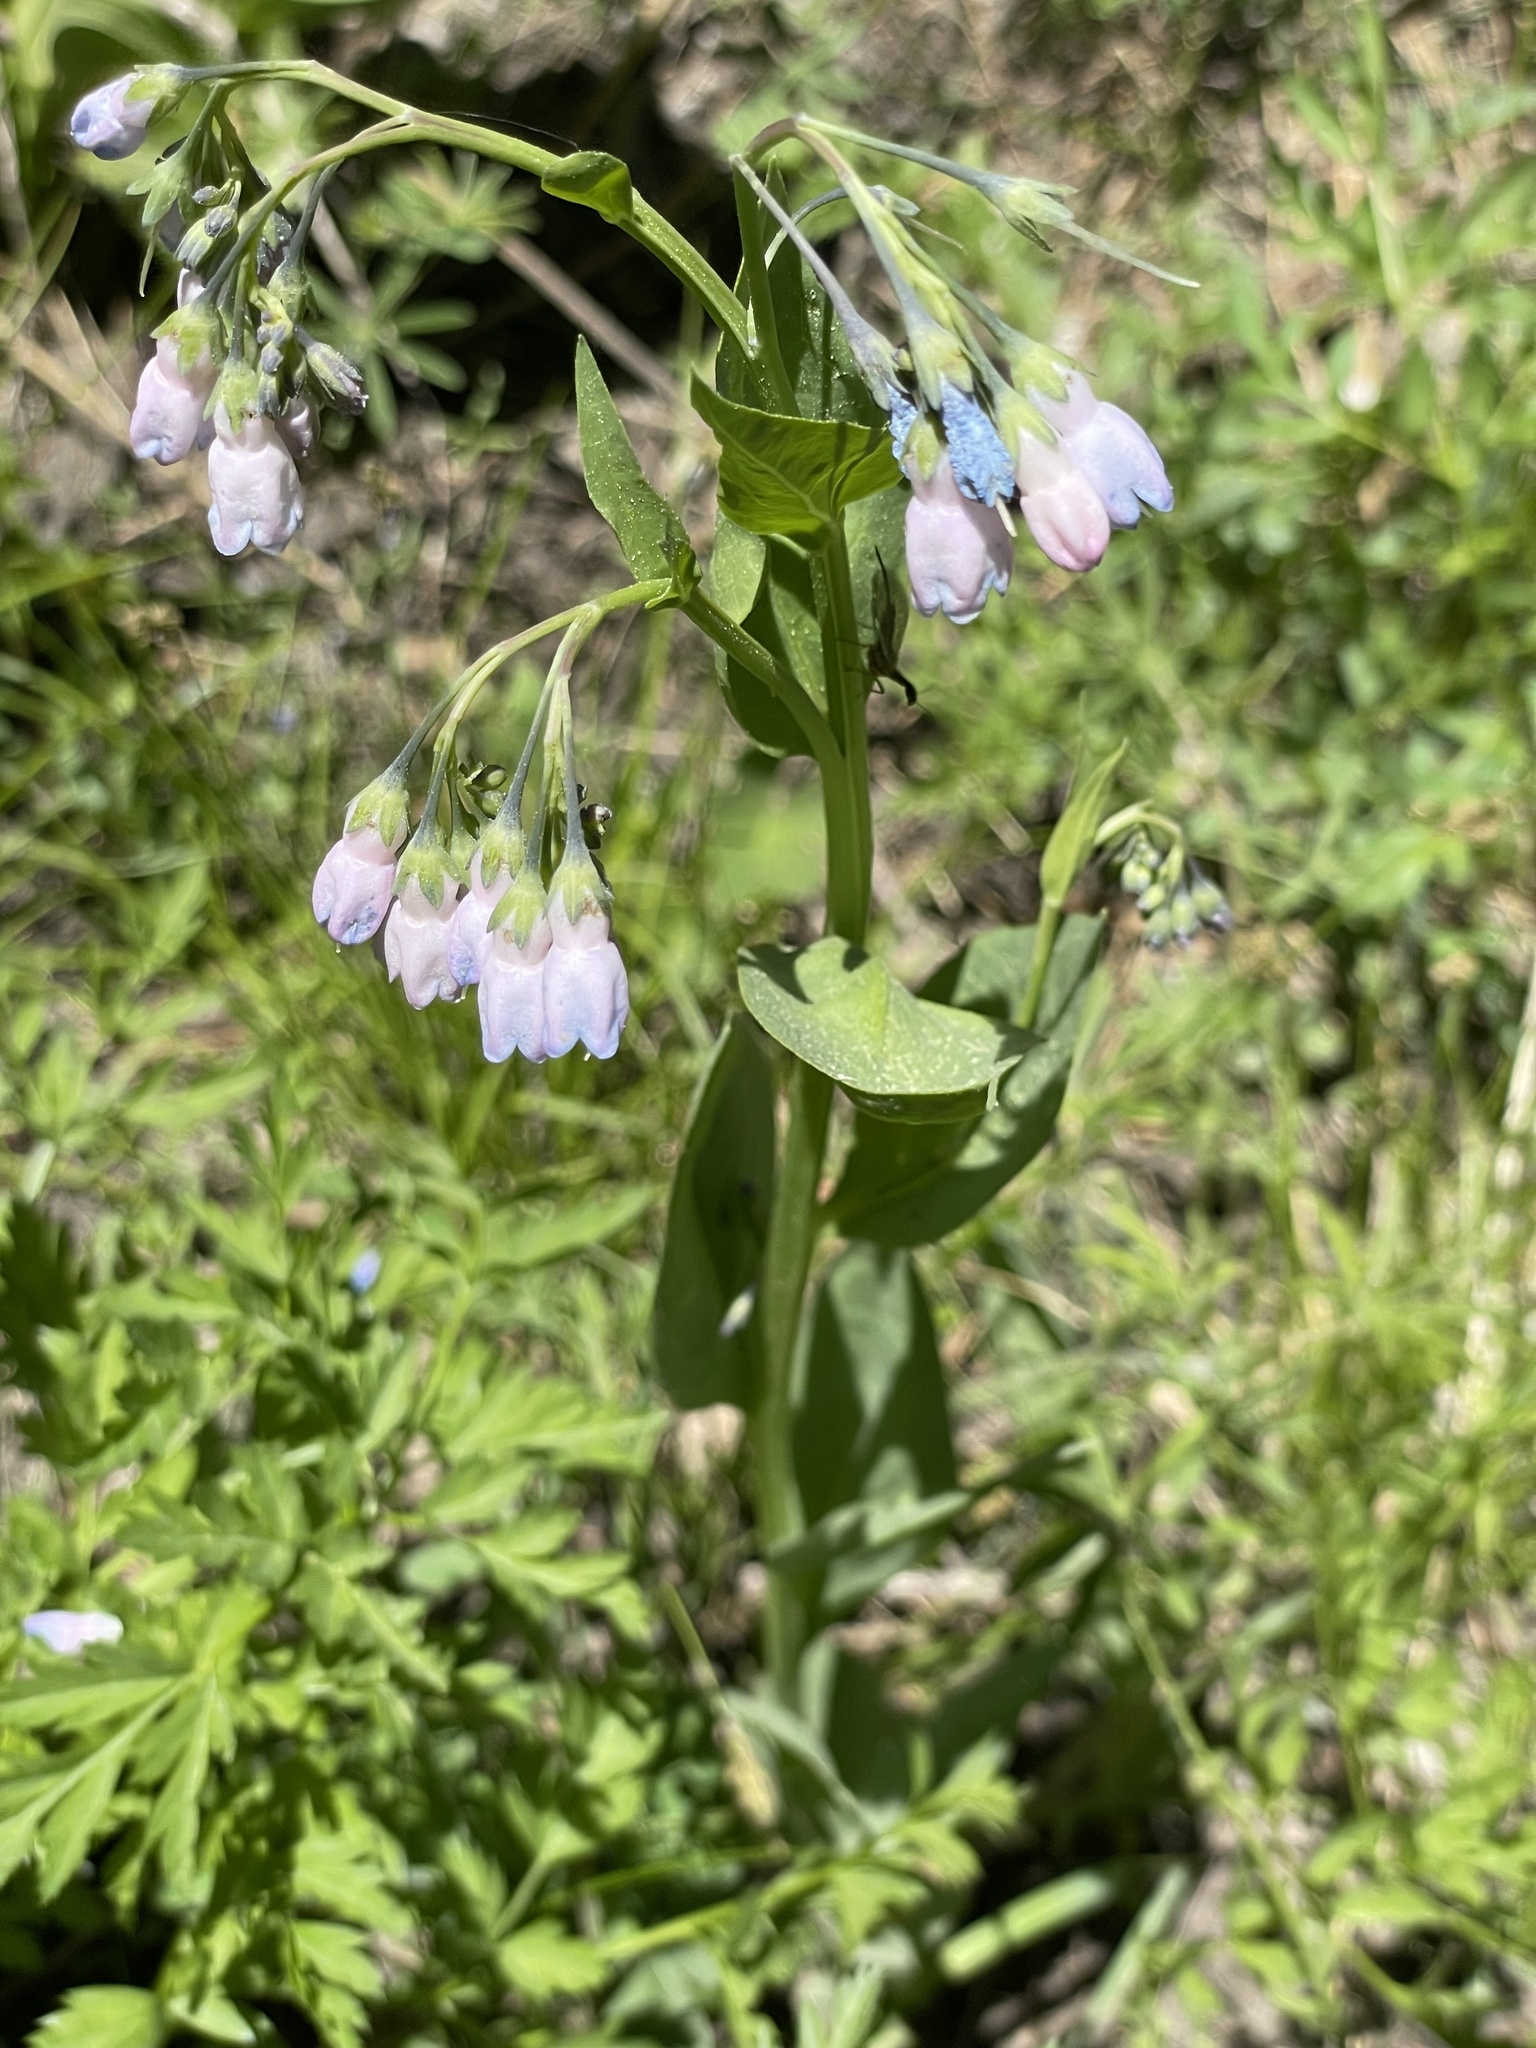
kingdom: Plantae
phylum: Tracheophyta
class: Magnoliopsida
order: Boraginales
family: Boraginaceae
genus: Mertensia
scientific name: Mertensia ciliata
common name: Tall chiming-bells
